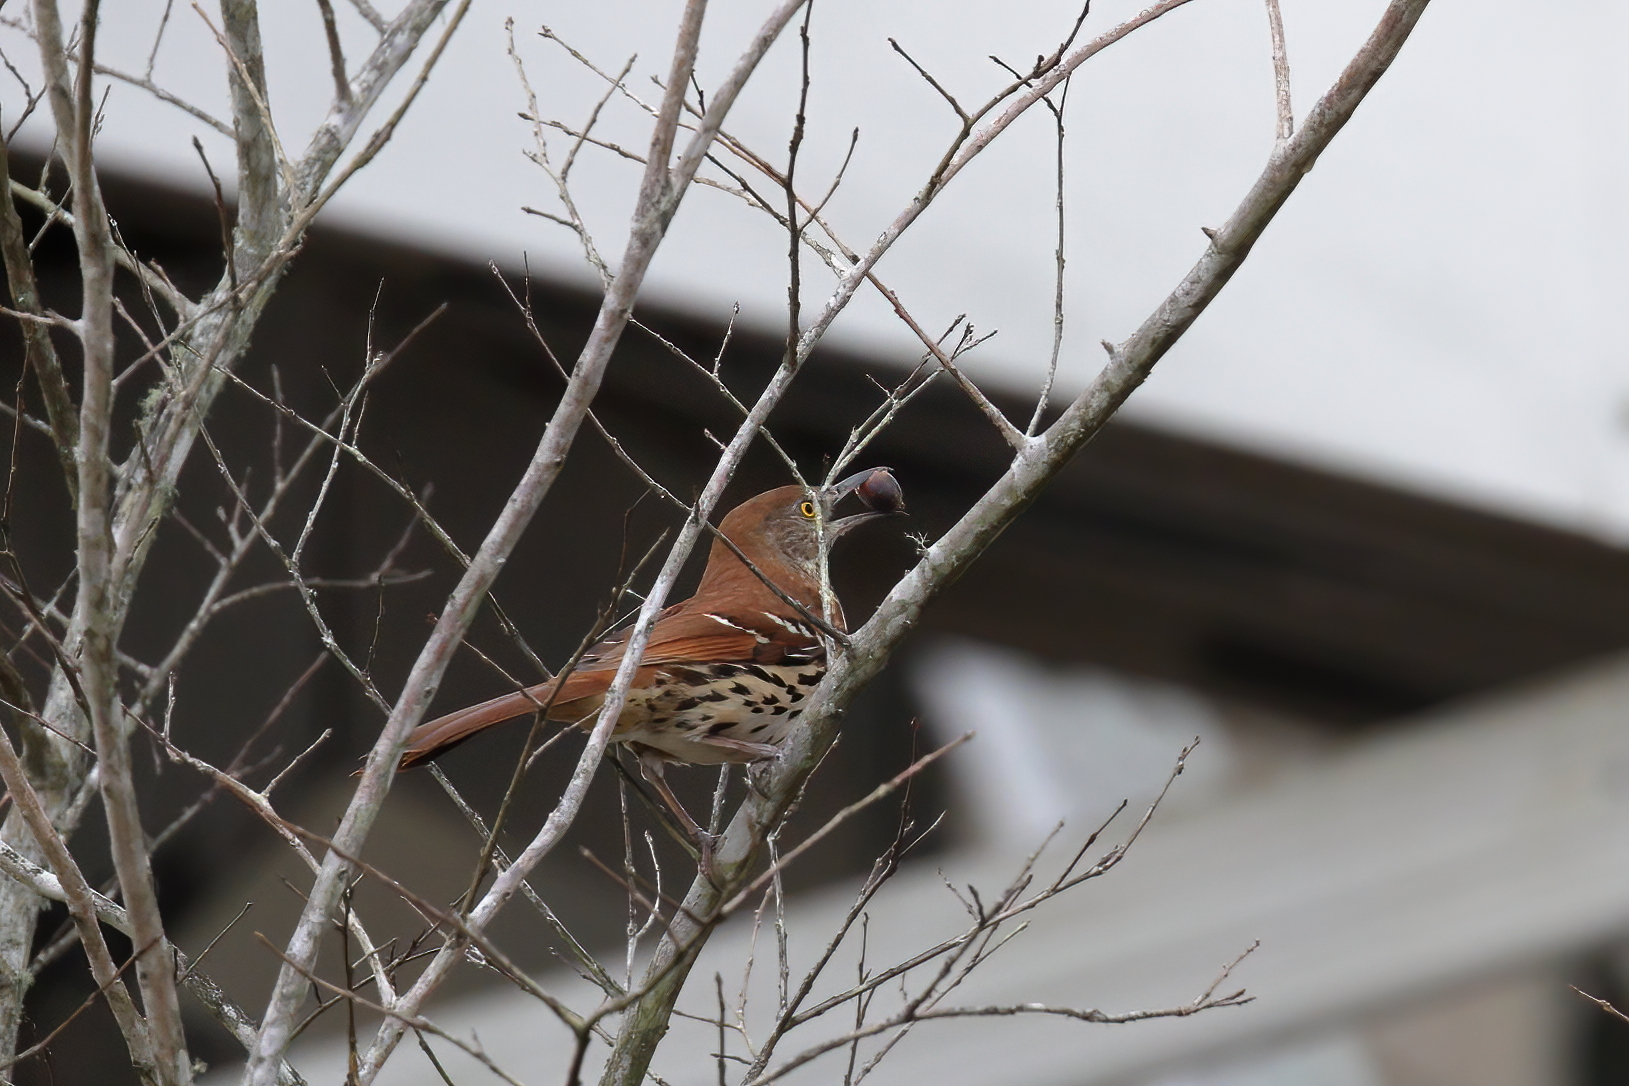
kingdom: Animalia
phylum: Chordata
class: Aves
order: Passeriformes
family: Mimidae
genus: Toxostoma
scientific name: Toxostoma rufum
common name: Brown thrasher
